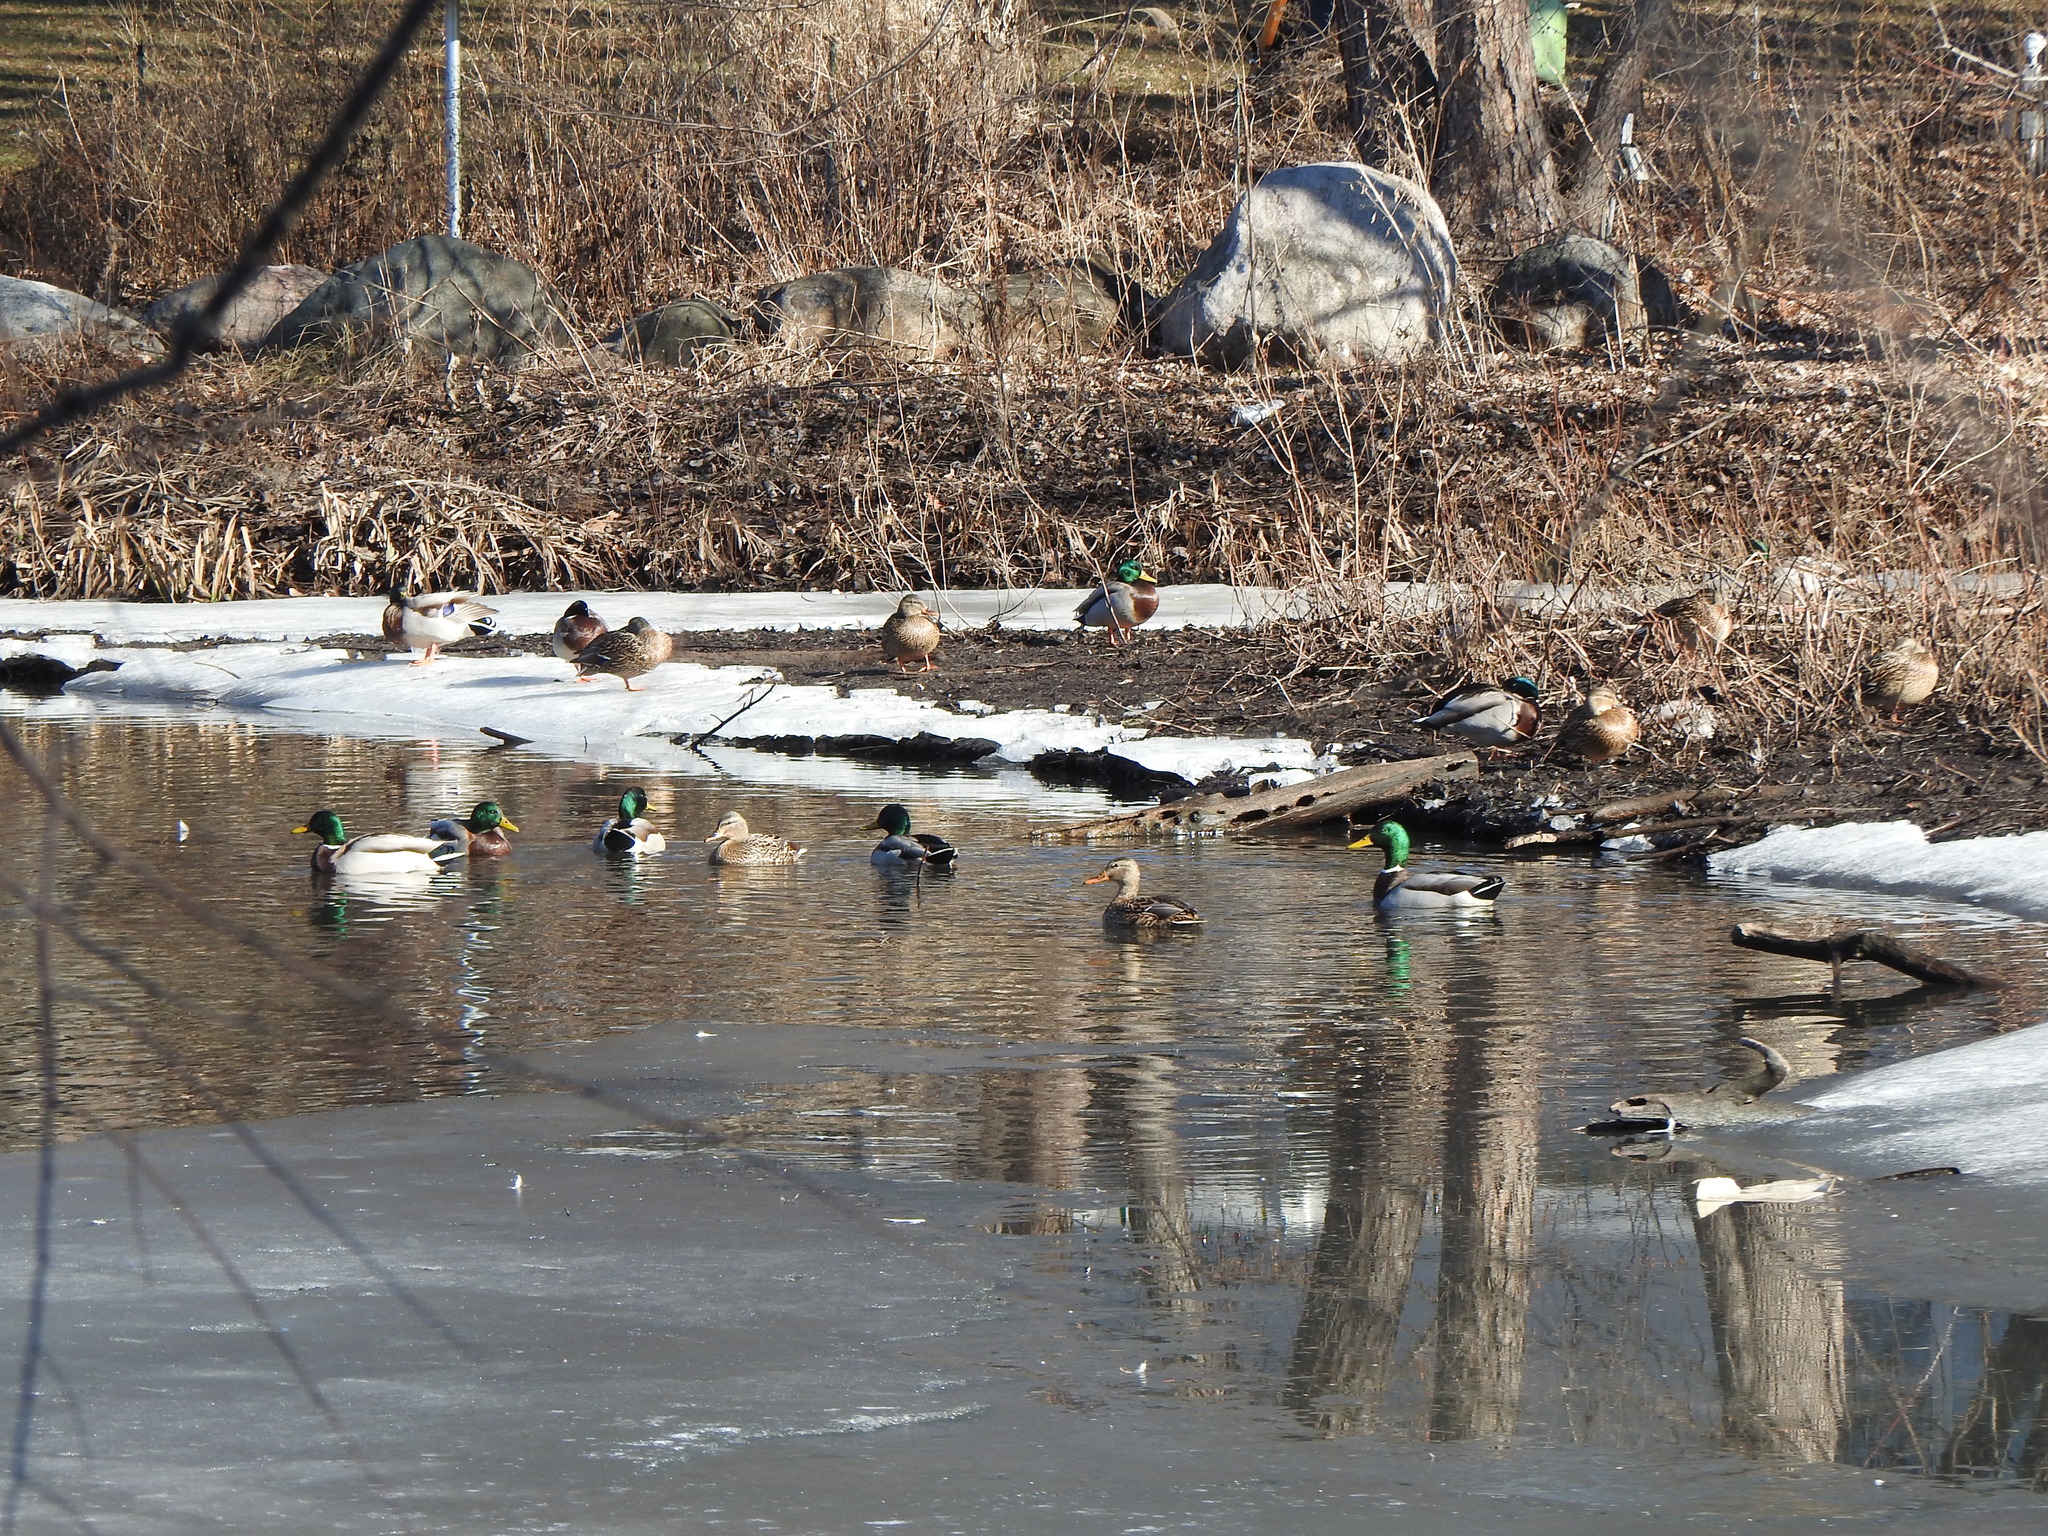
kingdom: Animalia
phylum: Chordata
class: Aves
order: Anseriformes
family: Anatidae
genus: Anas
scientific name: Anas platyrhynchos
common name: Mallard
